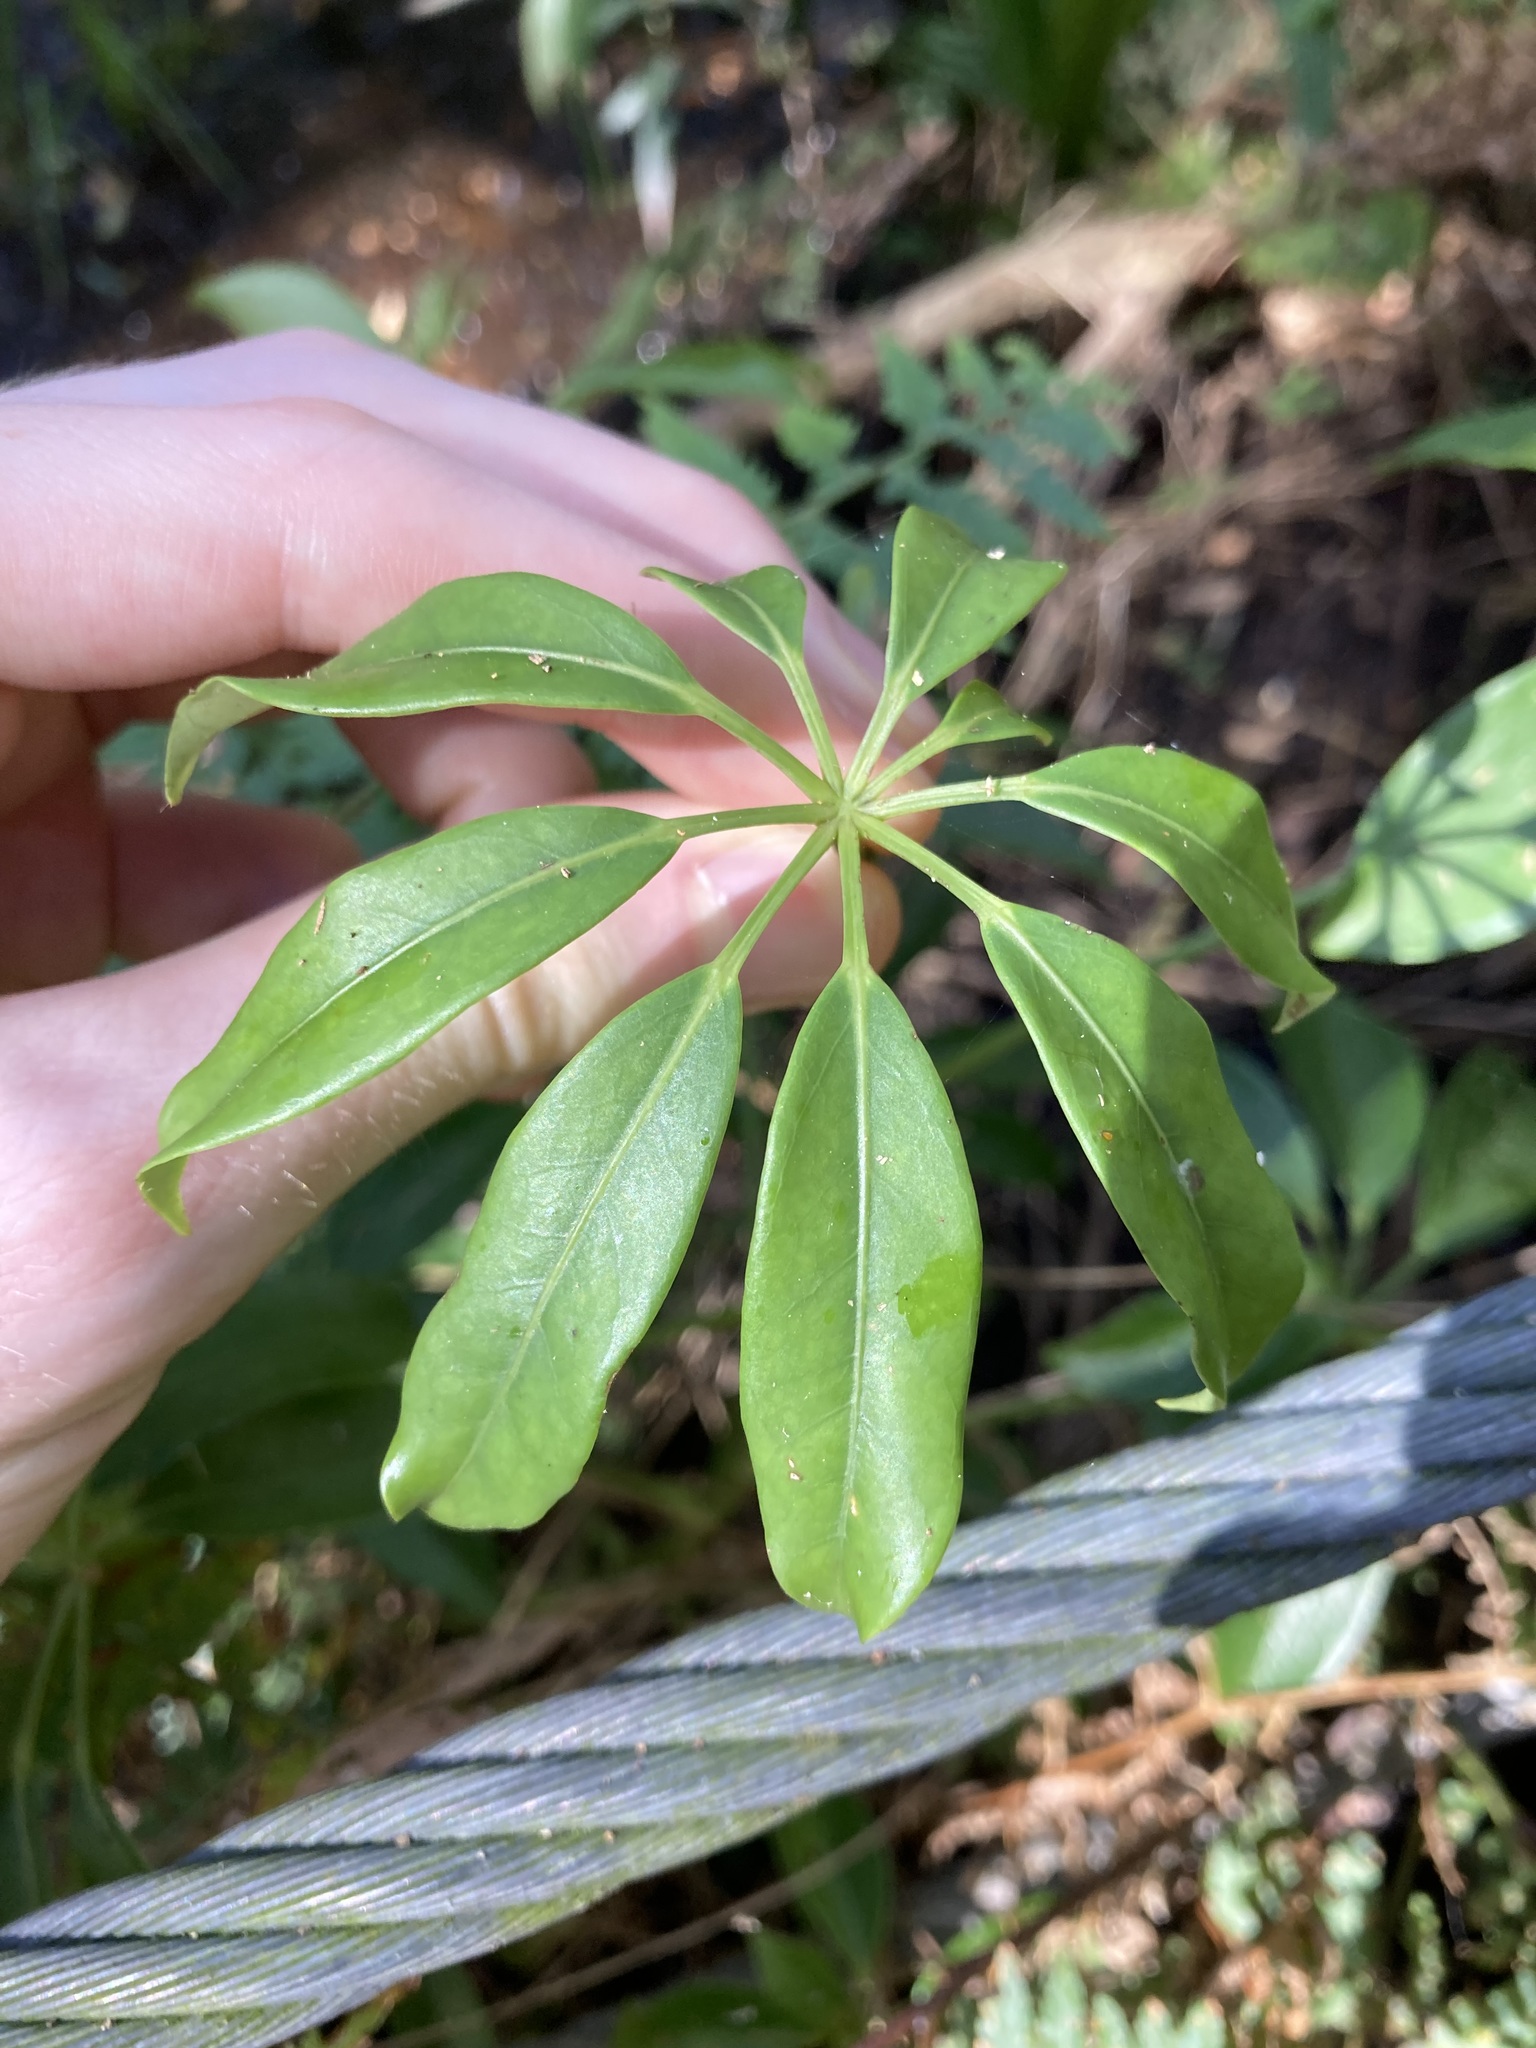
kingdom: Plantae
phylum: Tracheophyta
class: Magnoliopsida
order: Apiales
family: Araliaceae
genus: Heptapleurum
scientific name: Heptapleurum arboricola
